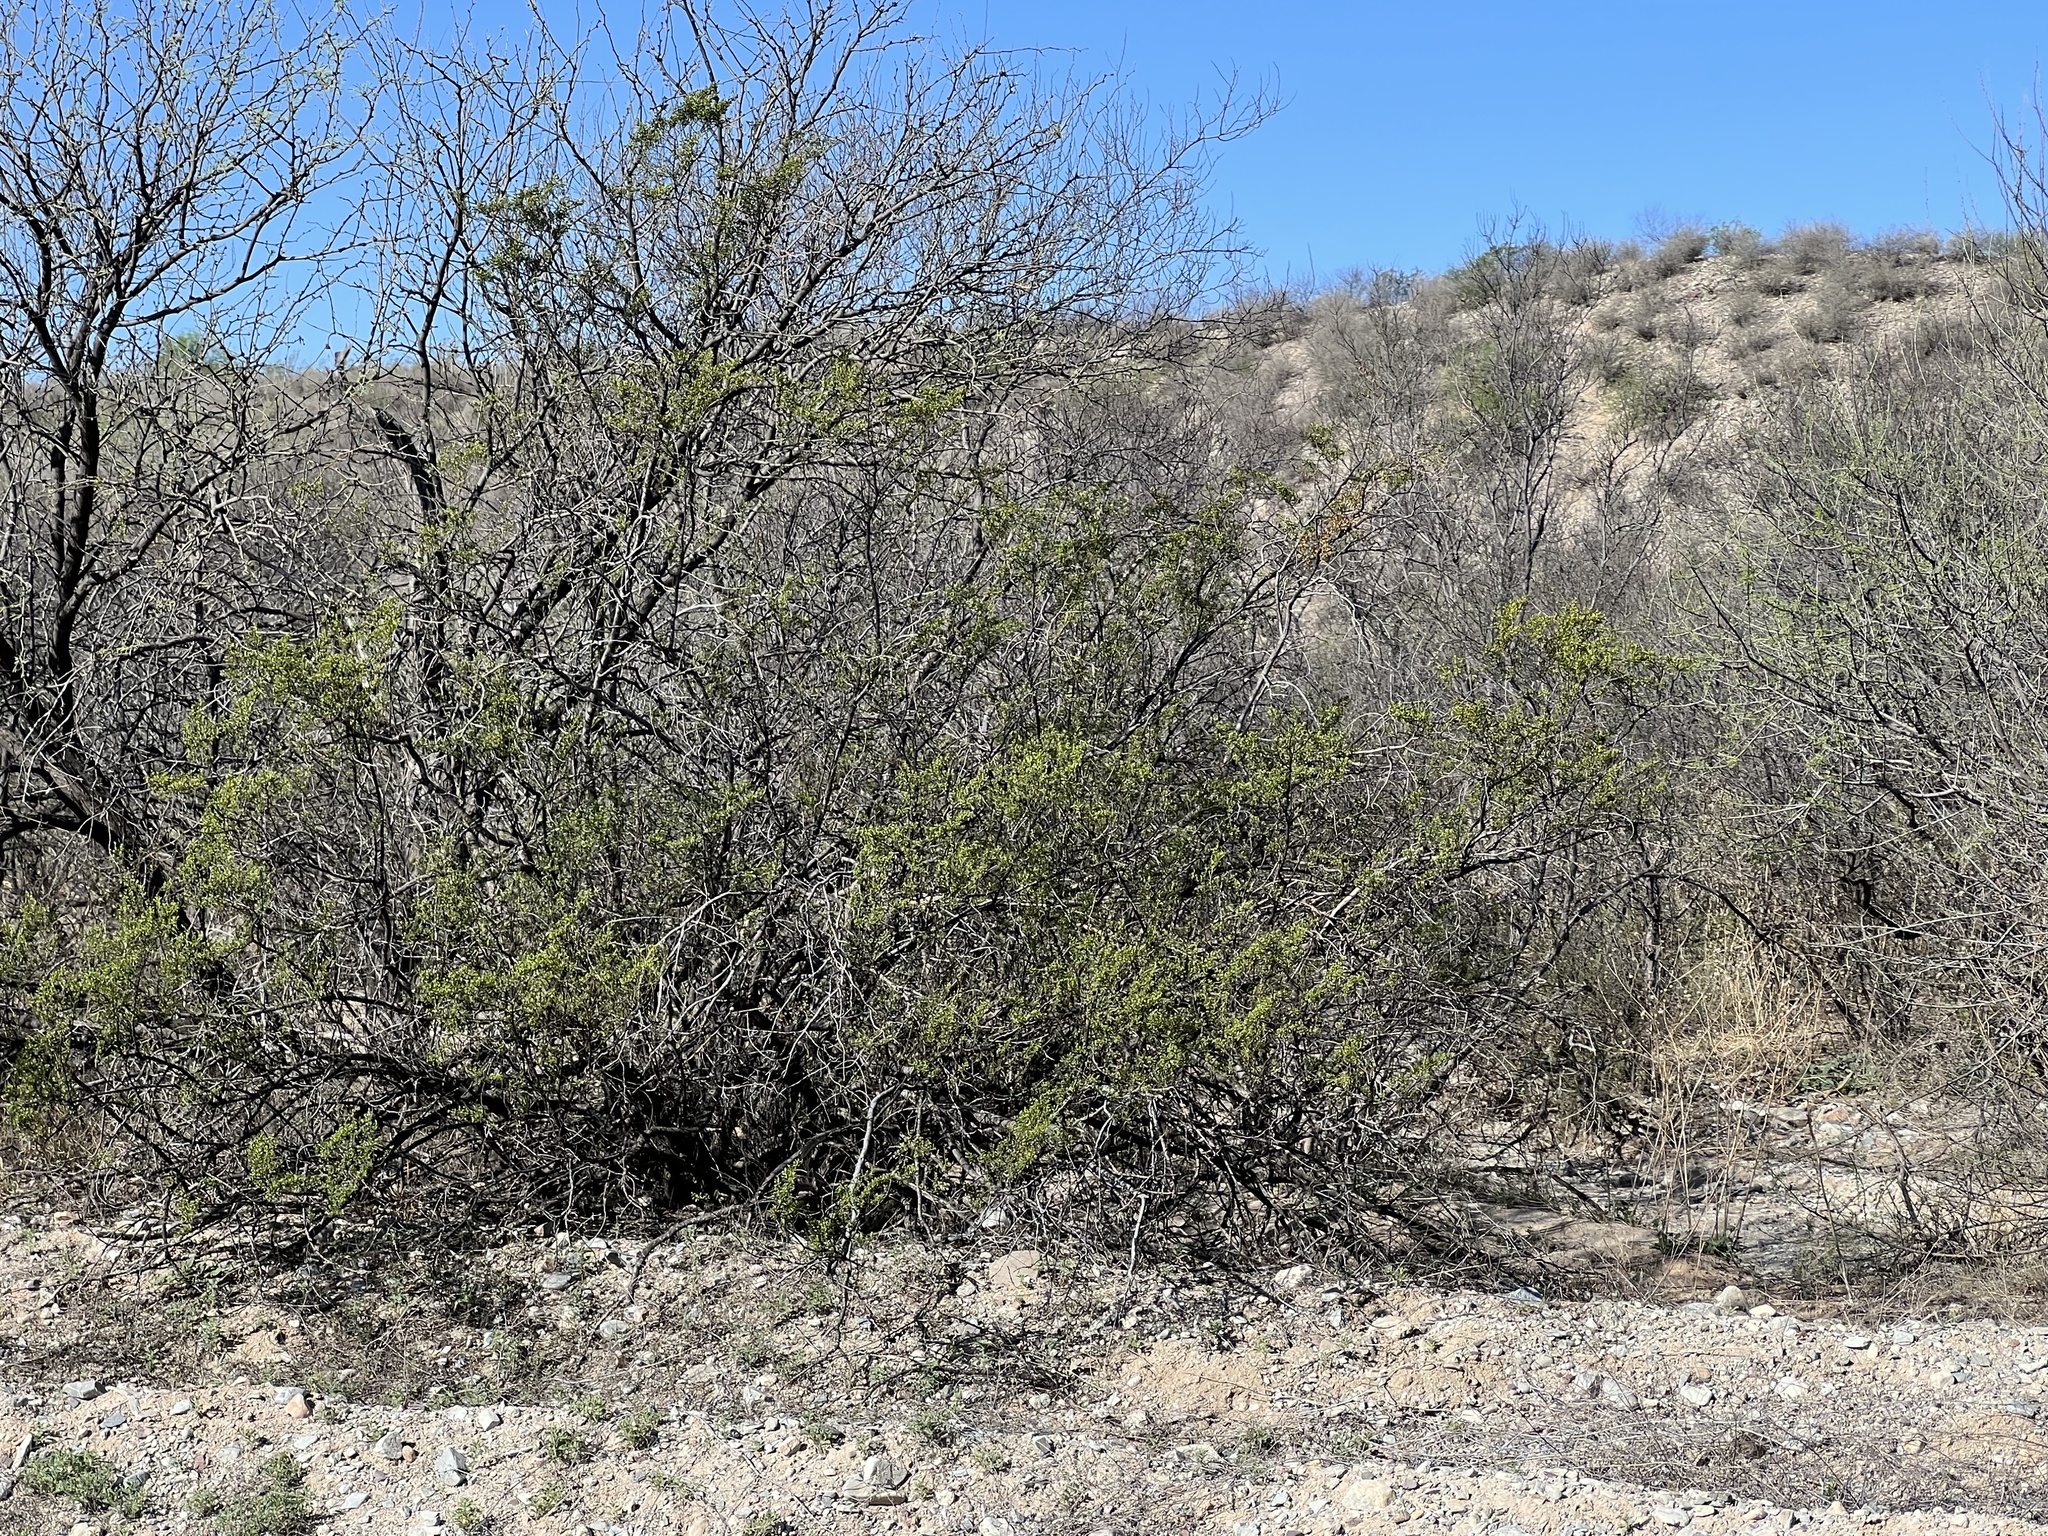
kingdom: Plantae
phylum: Tracheophyta
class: Magnoliopsida
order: Zygophyllales
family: Zygophyllaceae
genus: Larrea
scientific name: Larrea tridentata
